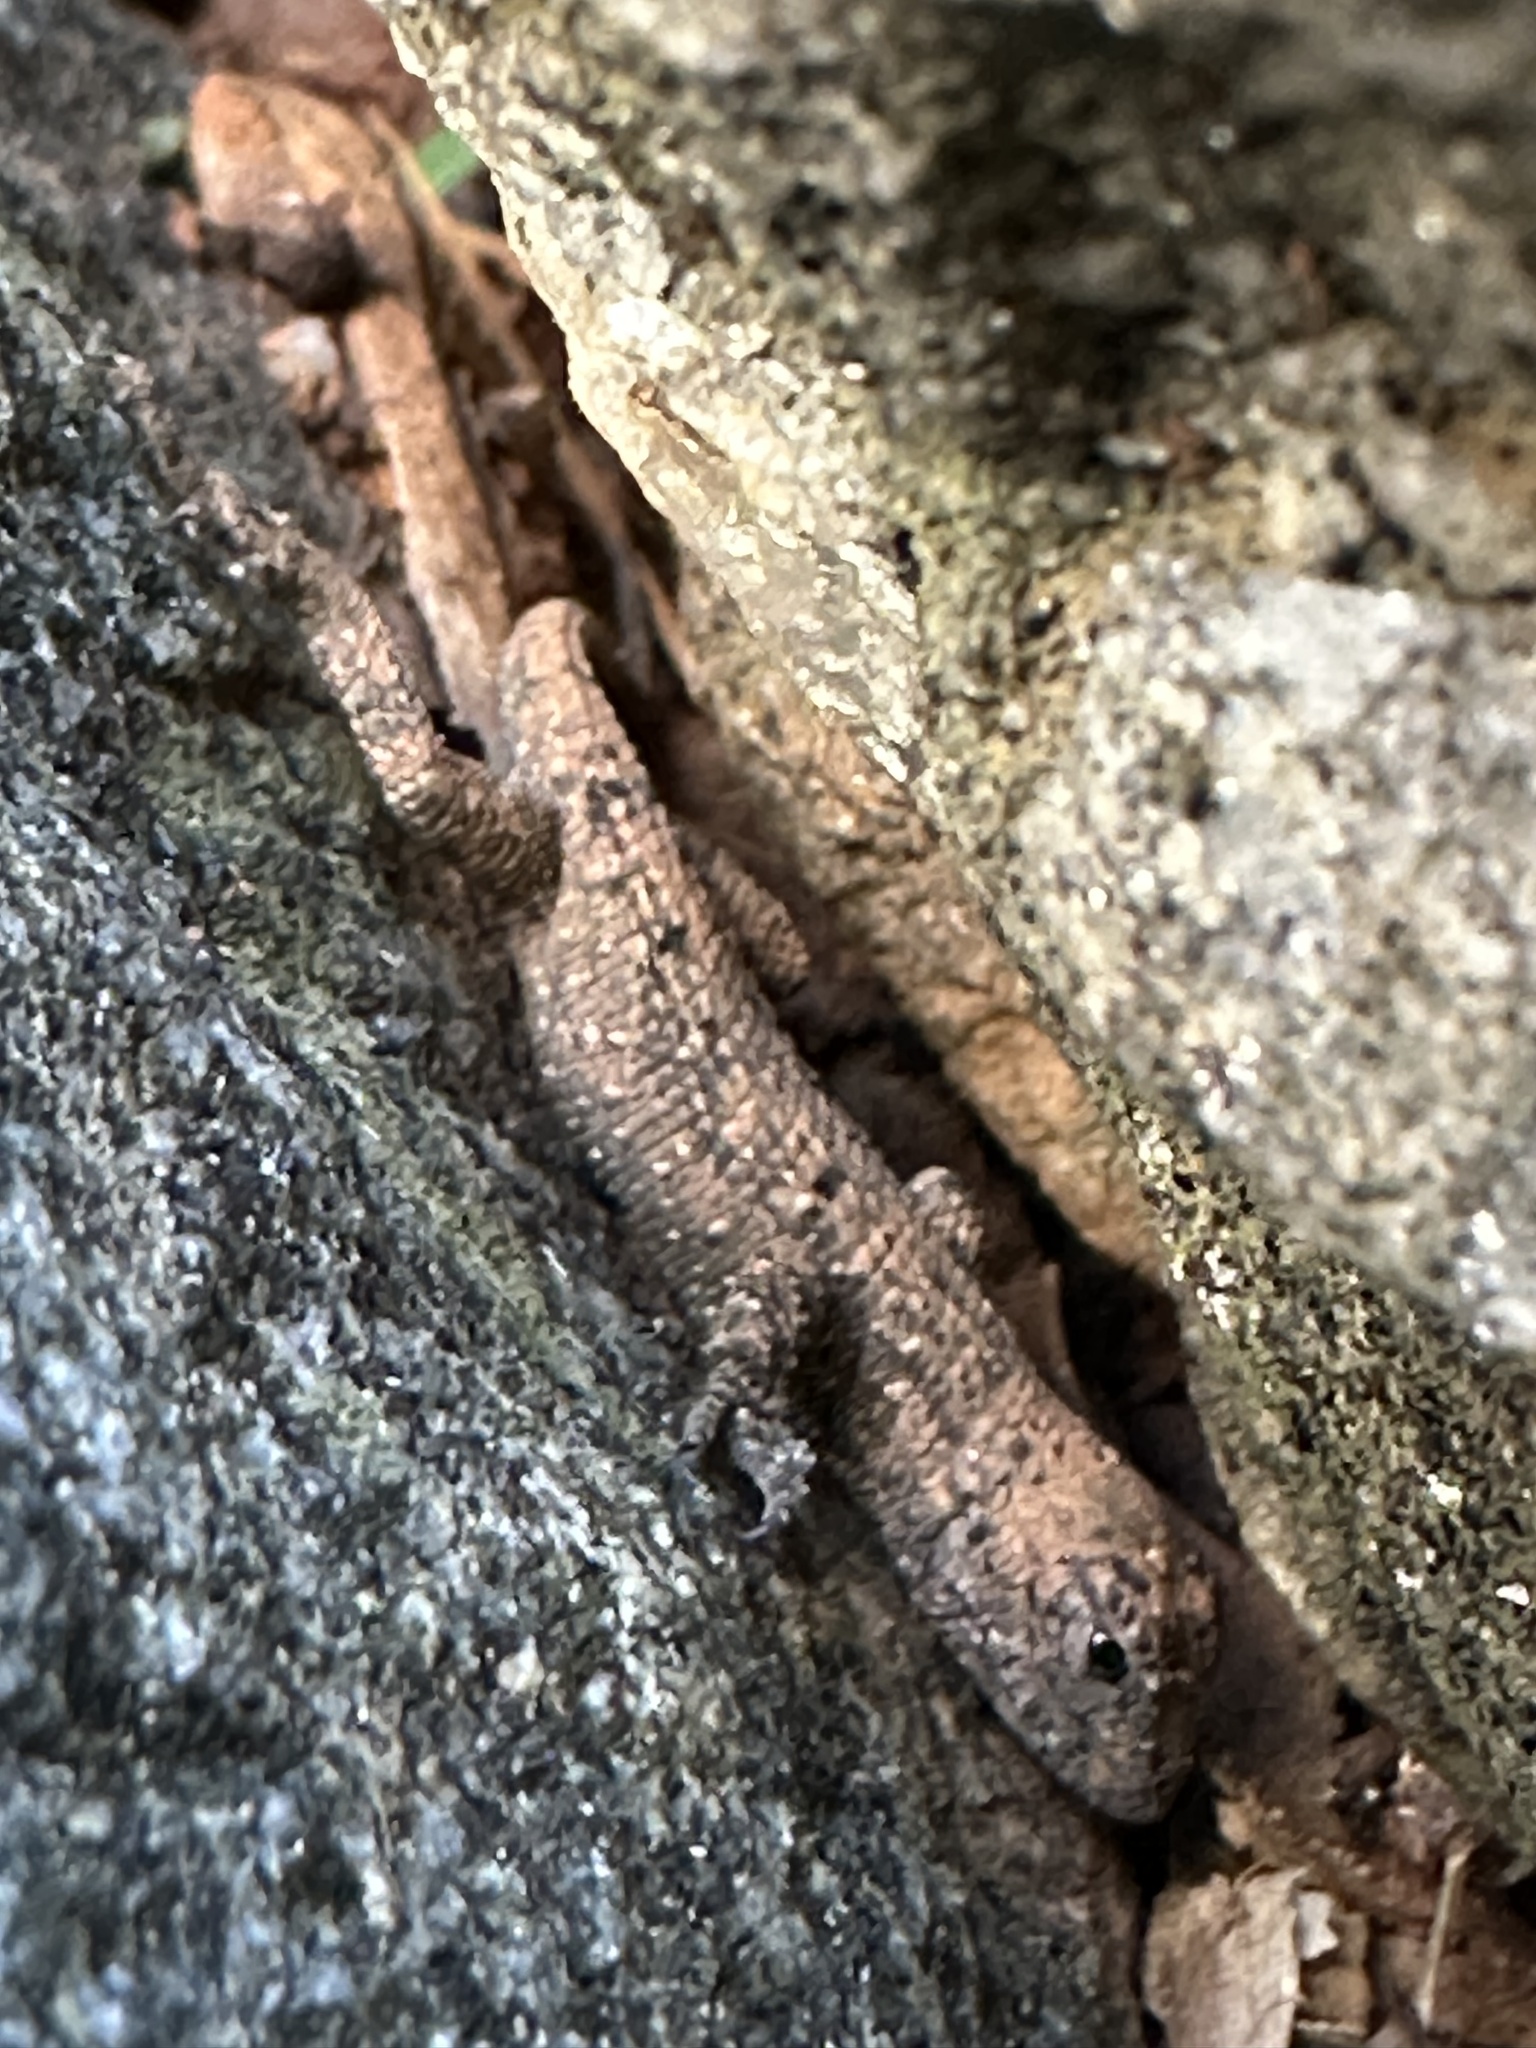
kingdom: Animalia
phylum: Chordata
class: Squamata
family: Phrynosomatidae
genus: Sceloporus
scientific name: Sceloporus undulatus
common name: Eastern fence lizard
